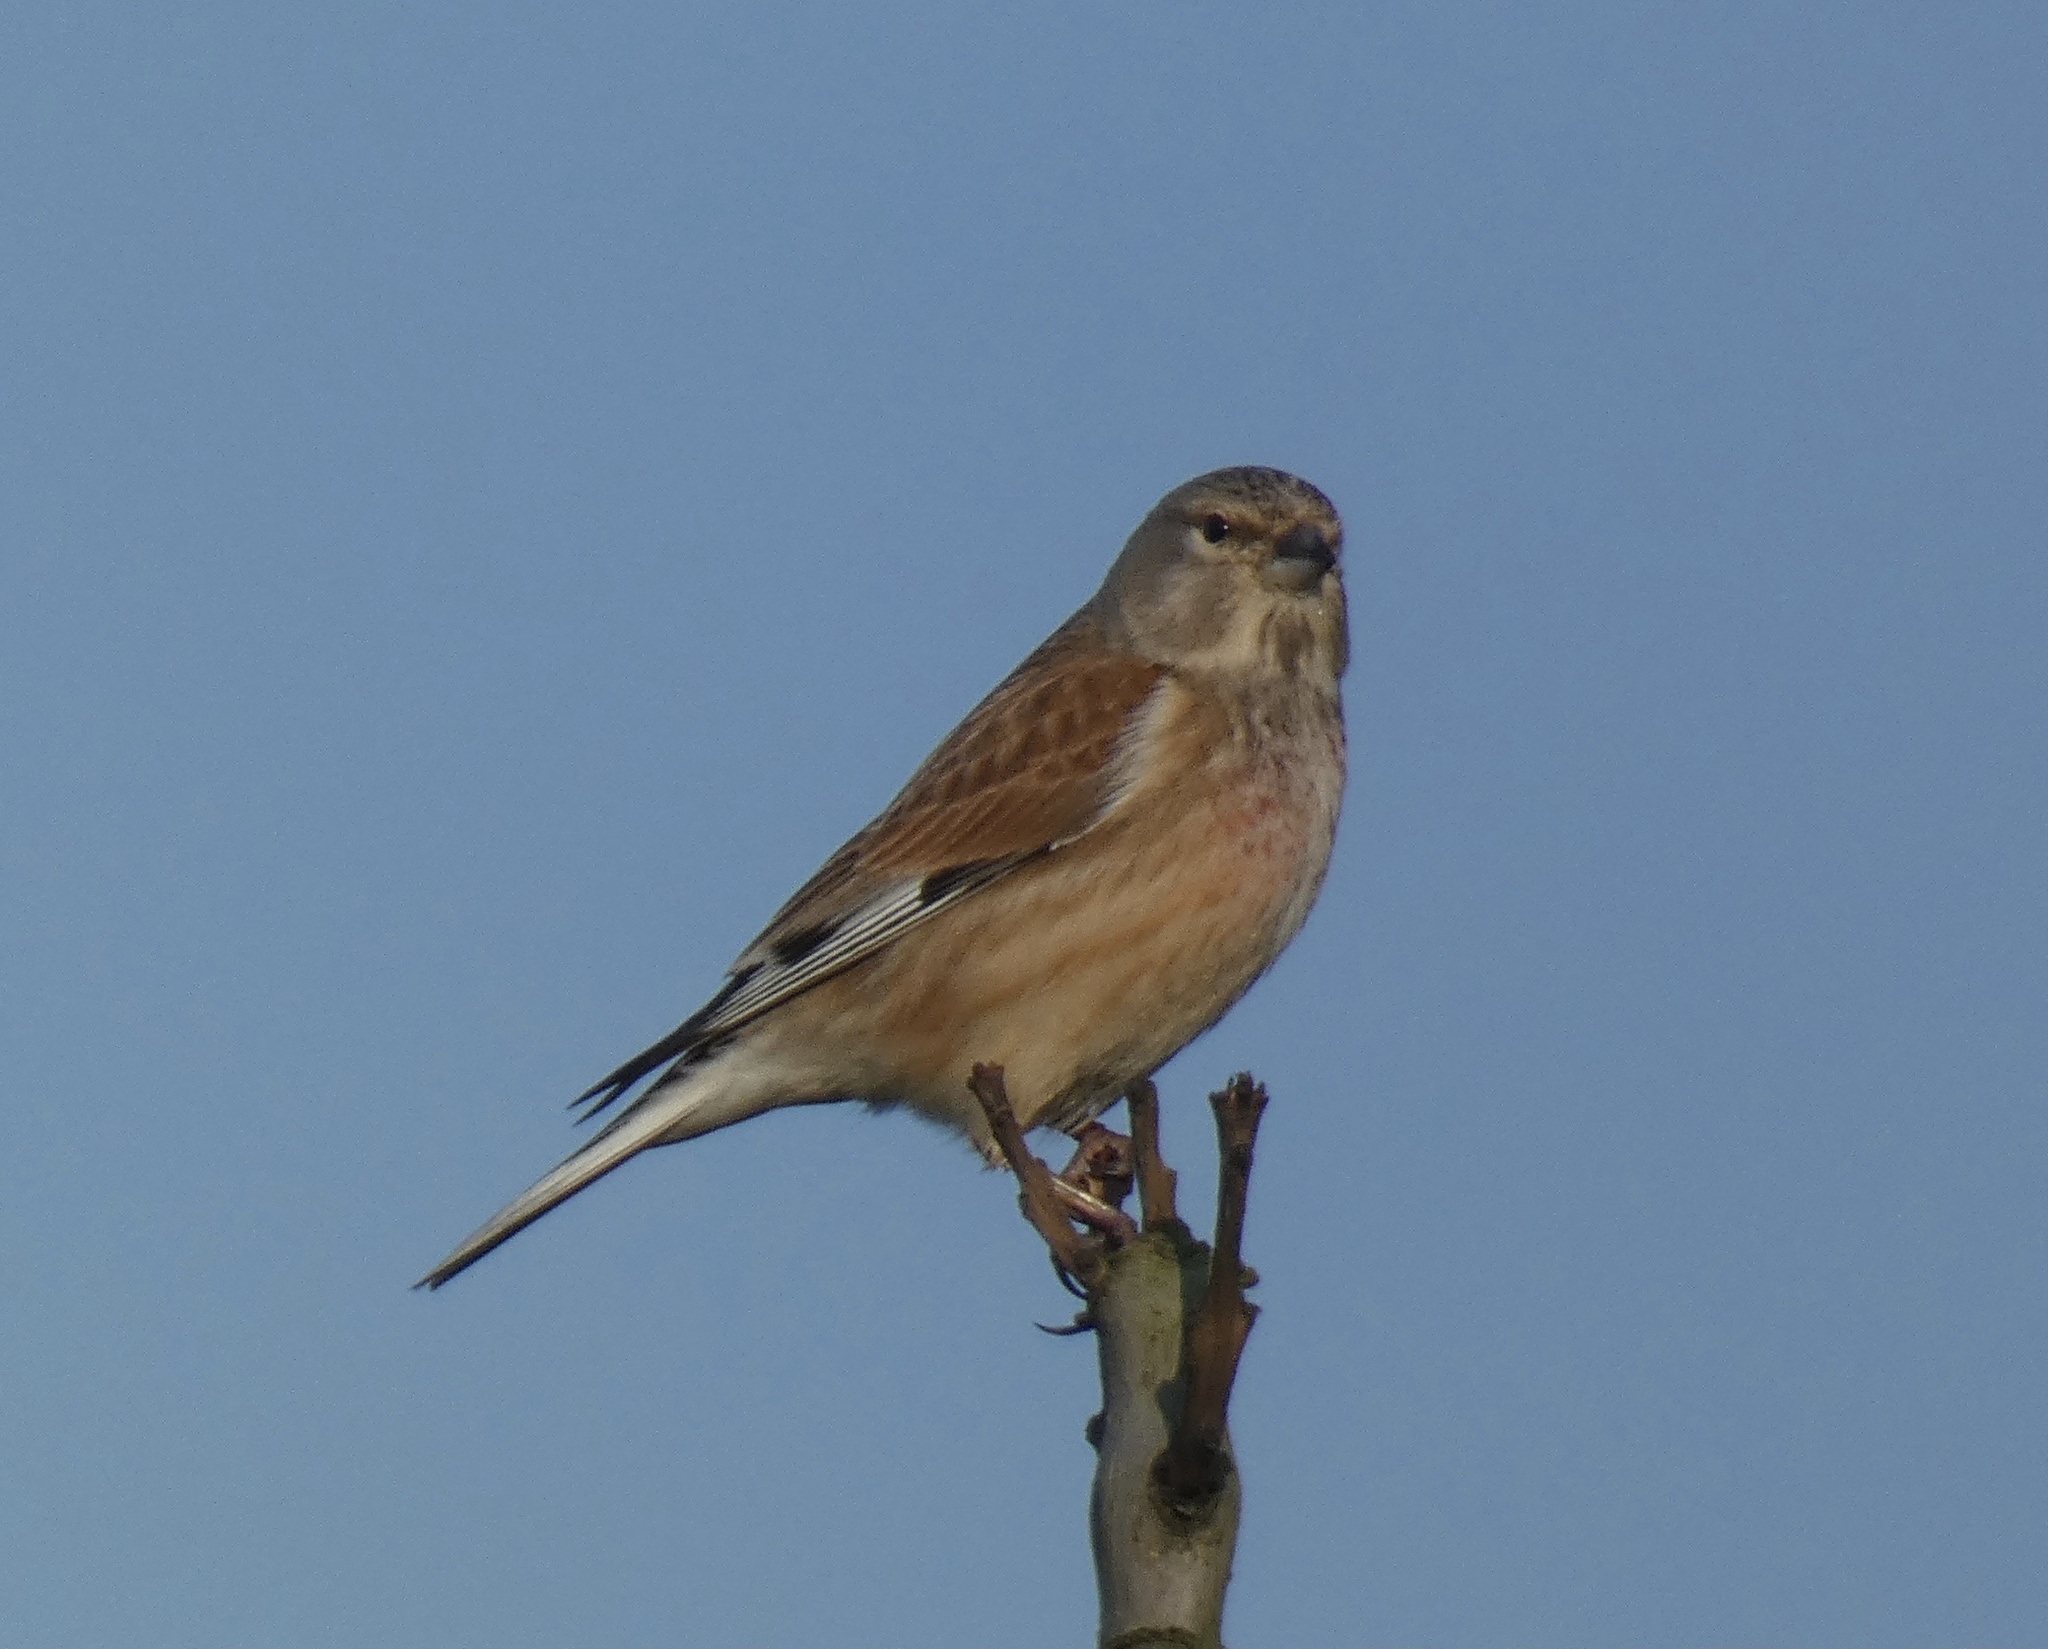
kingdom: Animalia
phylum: Chordata
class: Aves
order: Passeriformes
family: Fringillidae
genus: Linaria
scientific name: Linaria cannabina
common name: Common linnet
